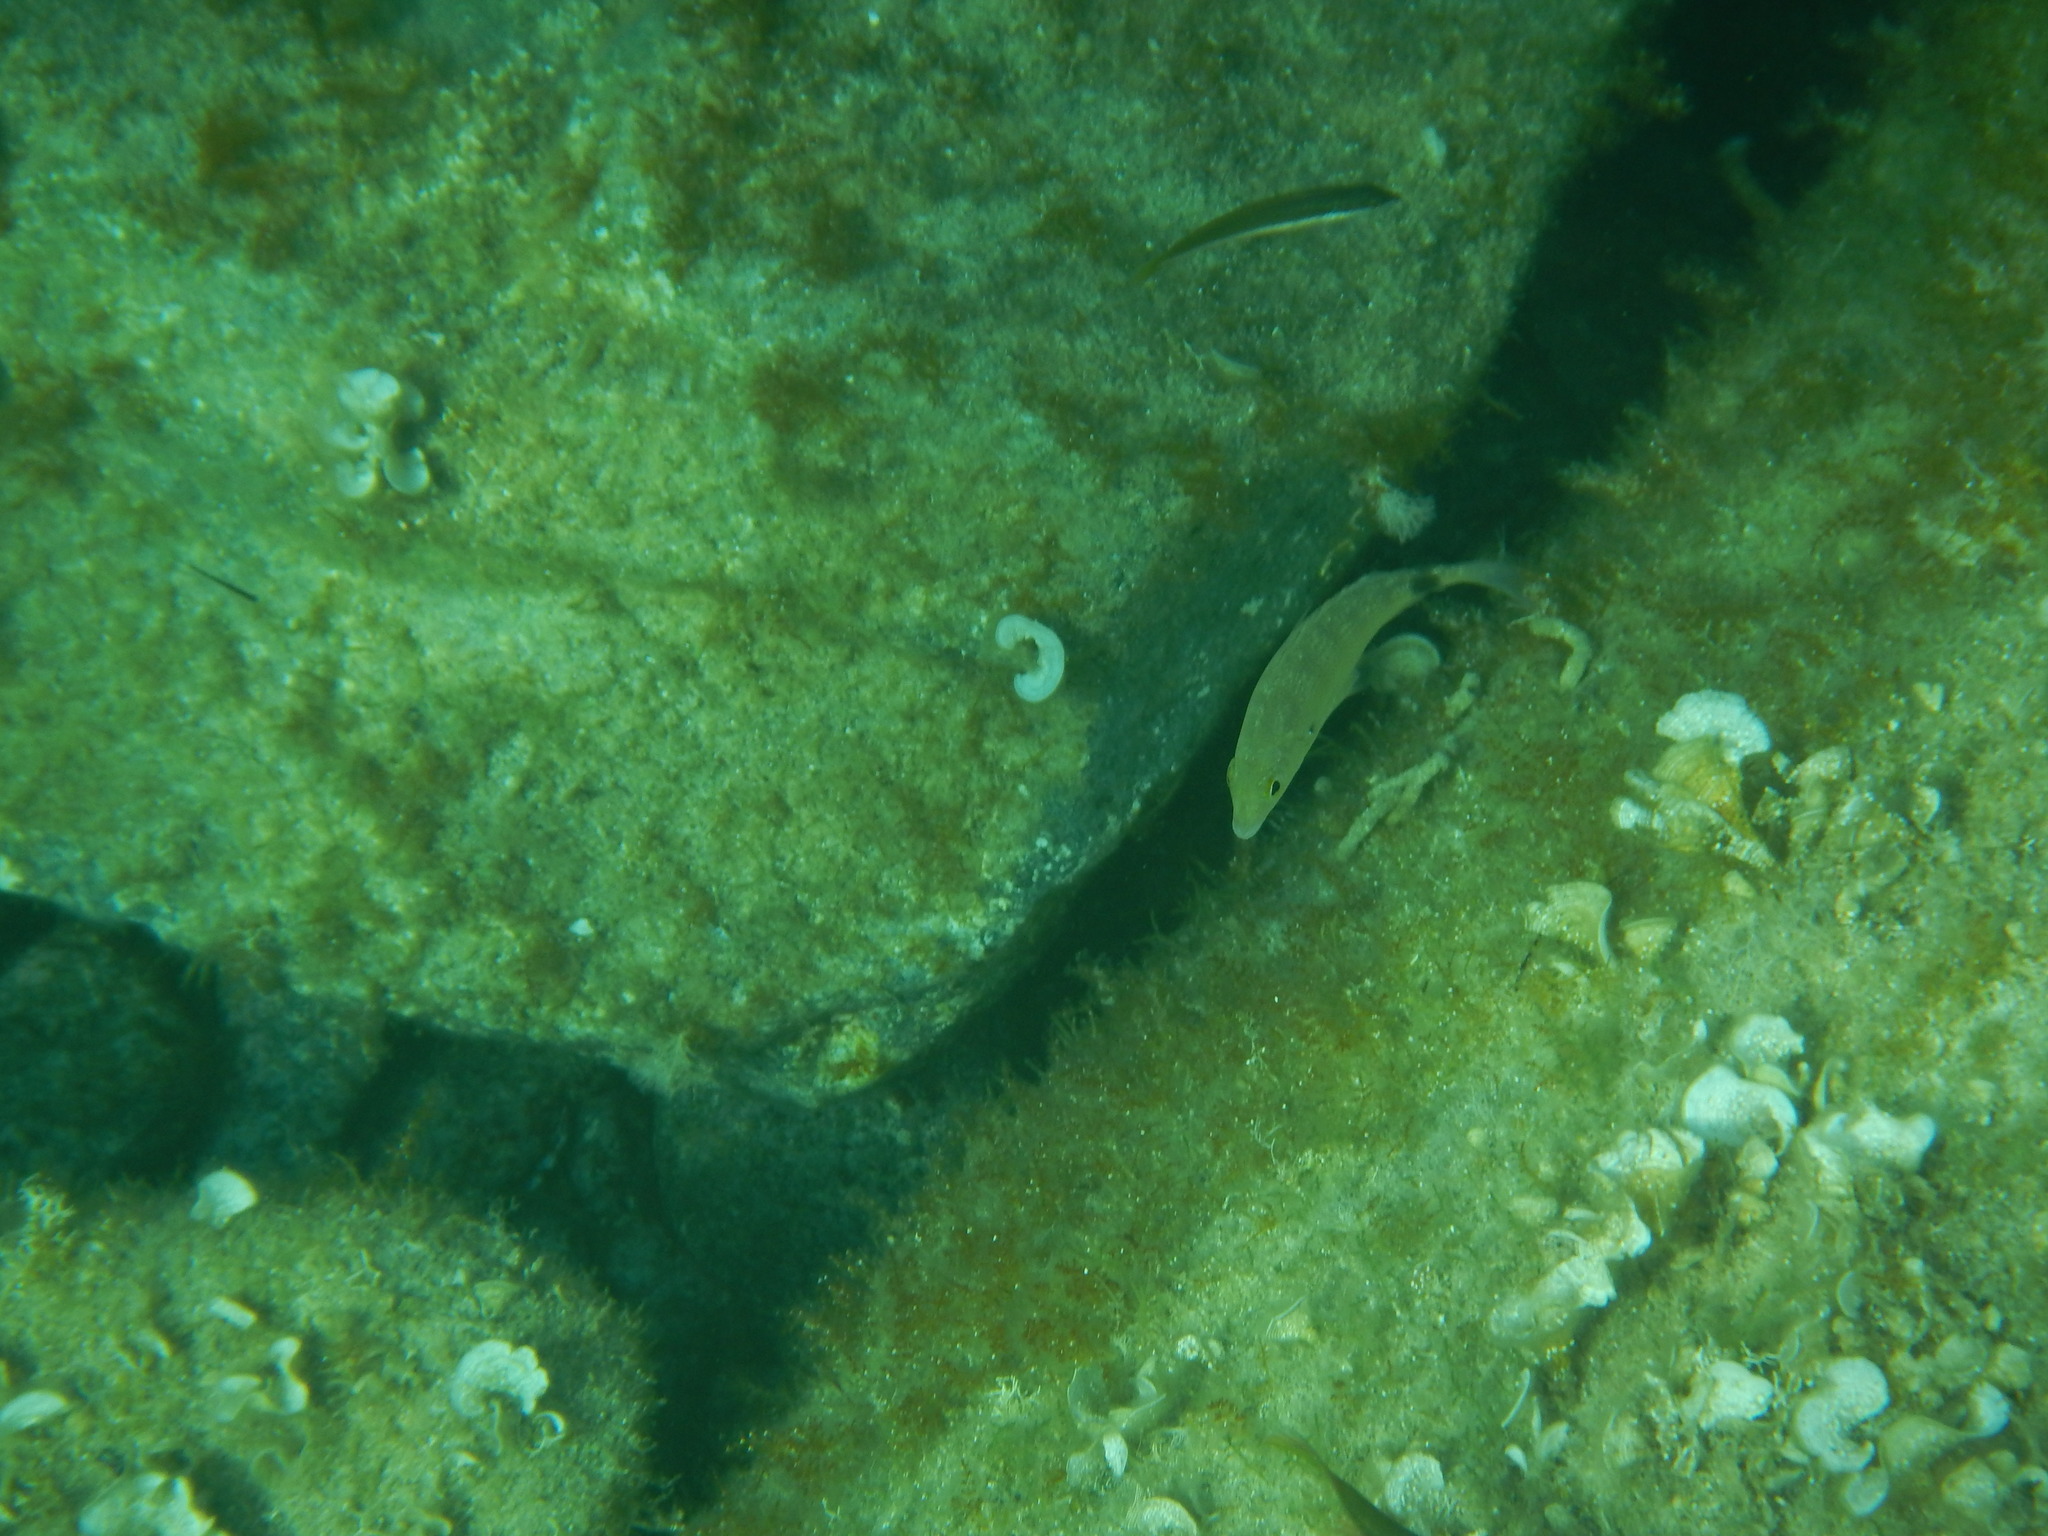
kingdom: Animalia
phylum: Chordata
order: Perciformes
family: Sparidae
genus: Diplodus
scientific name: Diplodus annularis
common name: Annular seabream
